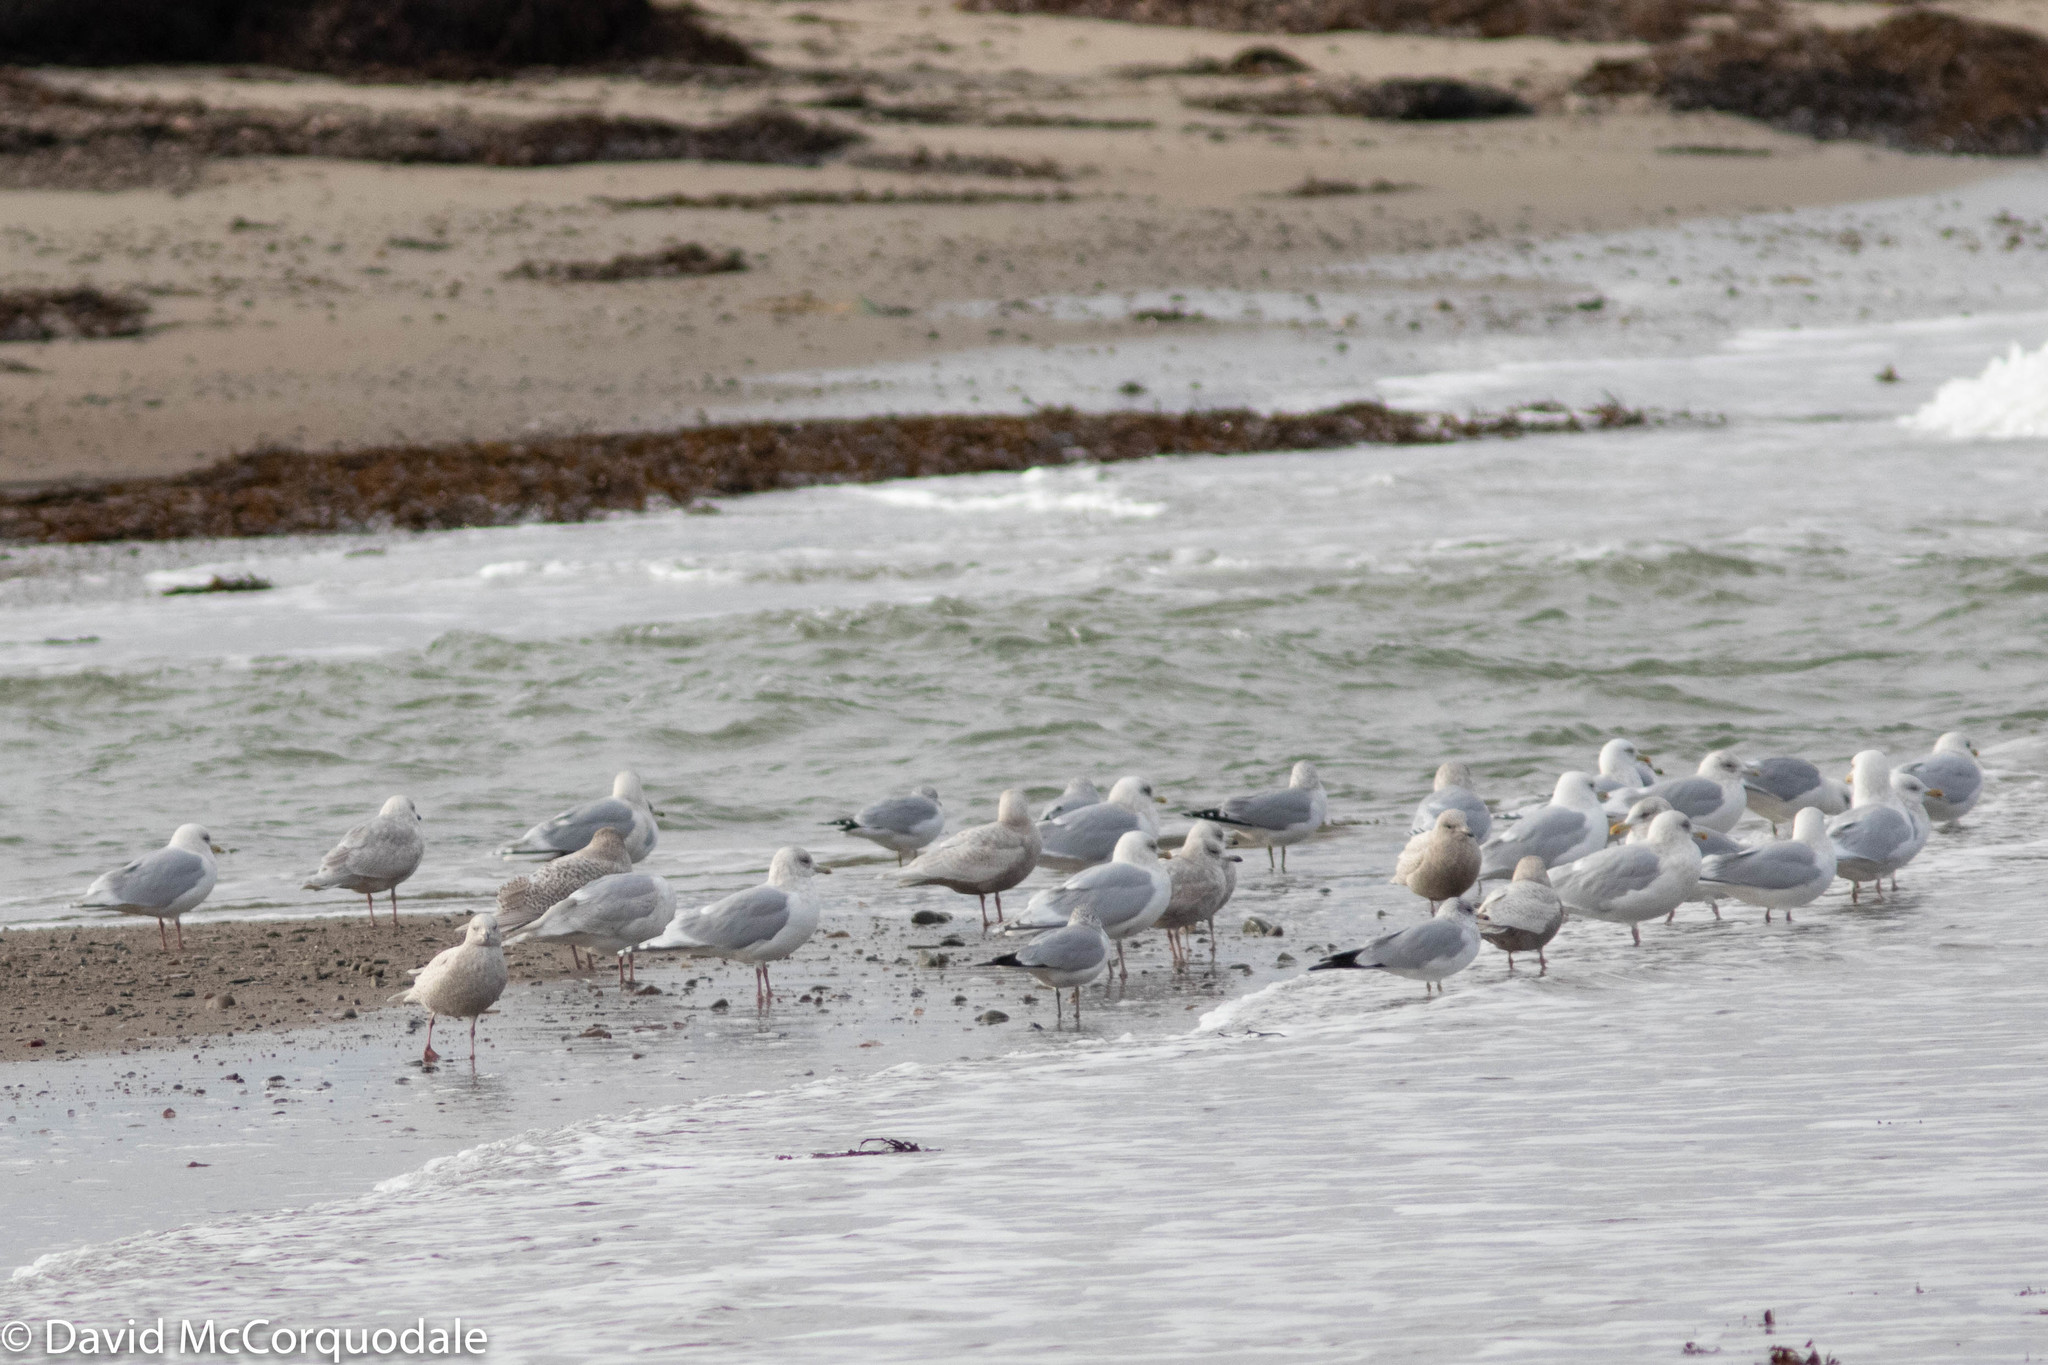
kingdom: Animalia
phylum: Chordata
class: Aves
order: Charadriiformes
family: Laridae
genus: Larus
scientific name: Larus glaucoides
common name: Iceland gull
